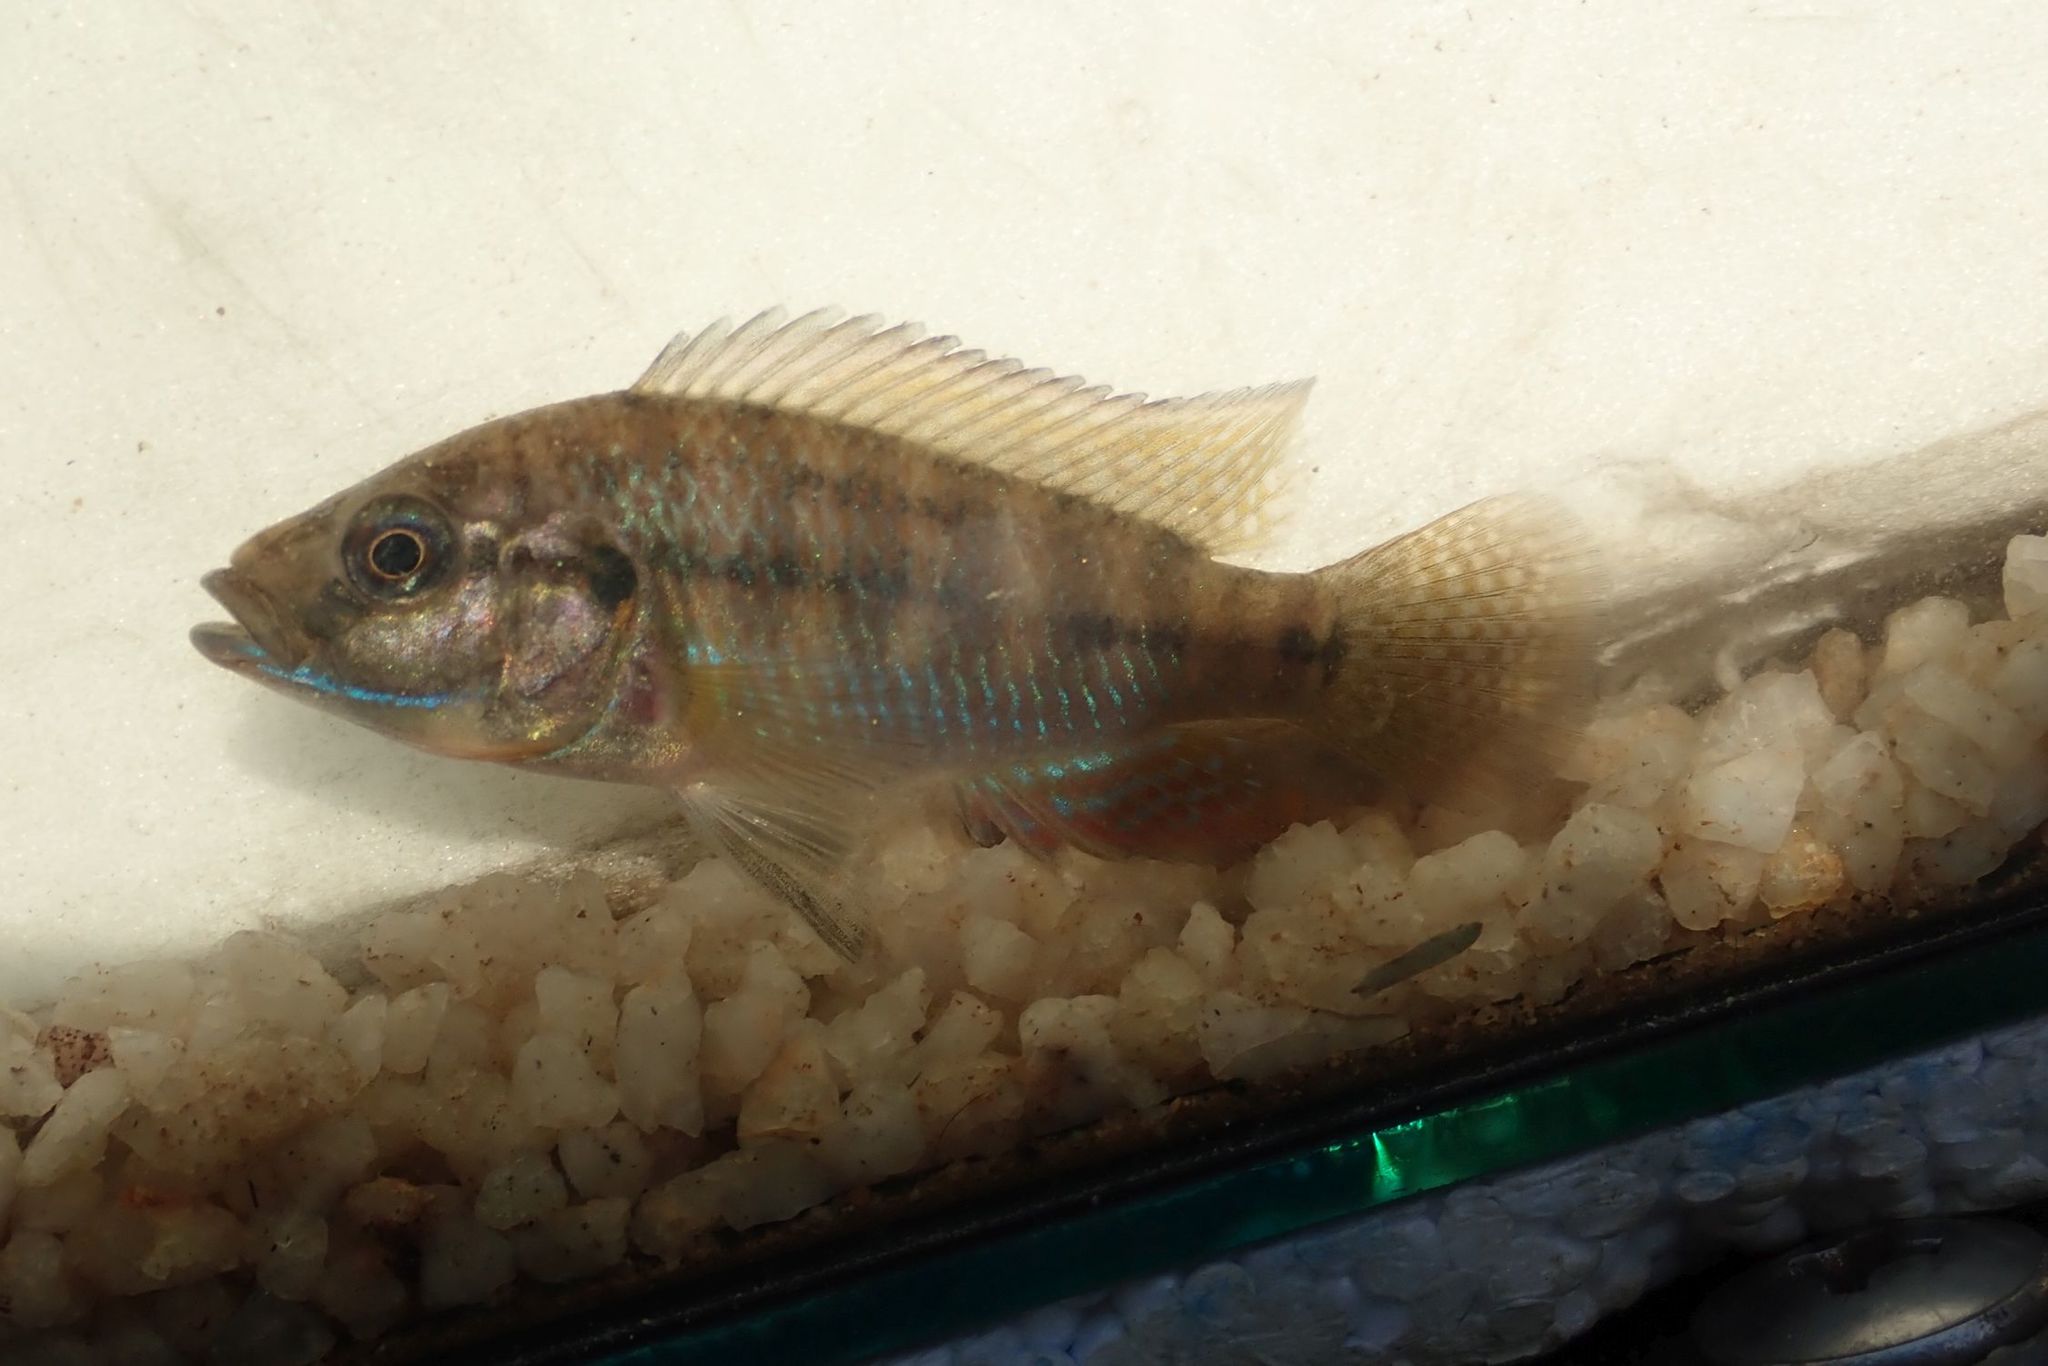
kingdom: Animalia
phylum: Chordata
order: Perciformes
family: Cichlidae
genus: Pseudocrenilabrus
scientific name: Pseudocrenilabrus philander
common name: Southern mouthbrooder
